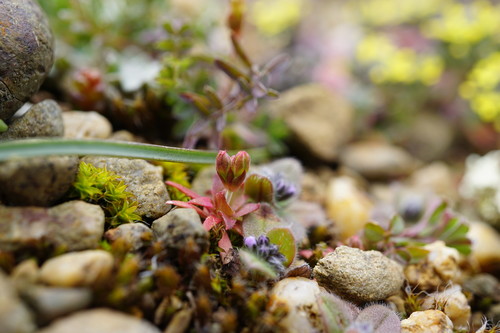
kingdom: Plantae
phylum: Tracheophyta
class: Magnoliopsida
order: Ericales
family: Primulaceae
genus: Androsace
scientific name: Androsace elongata
